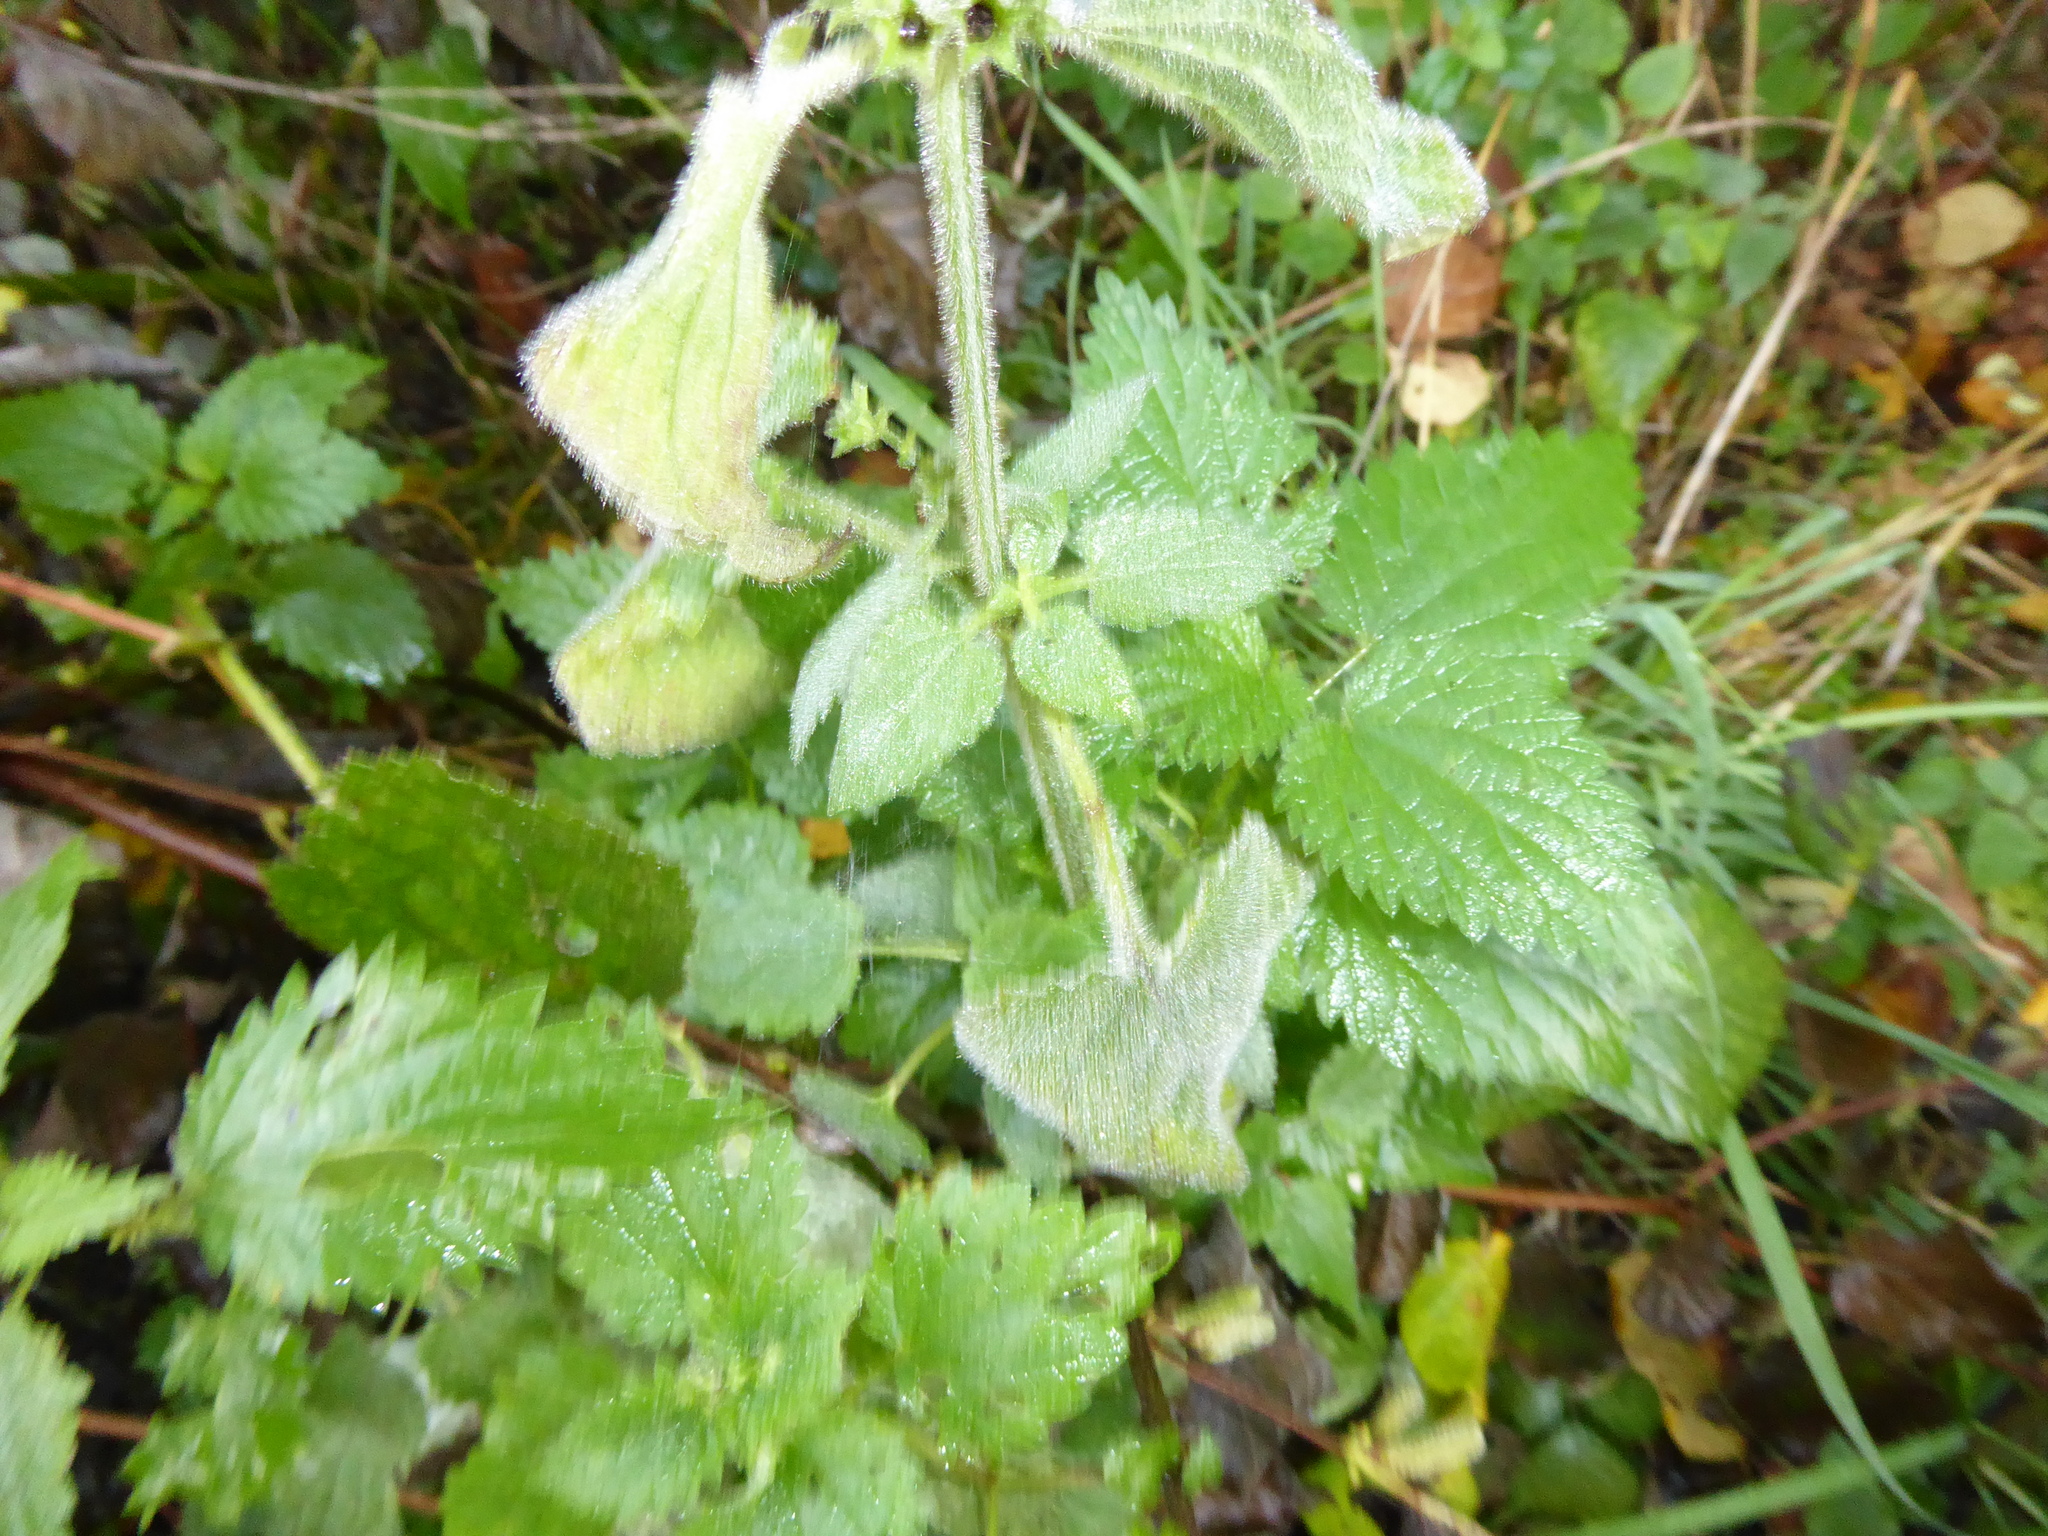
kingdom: Plantae
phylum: Tracheophyta
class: Magnoliopsida
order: Lamiales
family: Lamiaceae
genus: Stachys
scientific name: Stachys sylvatica
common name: Hedge woundwort
